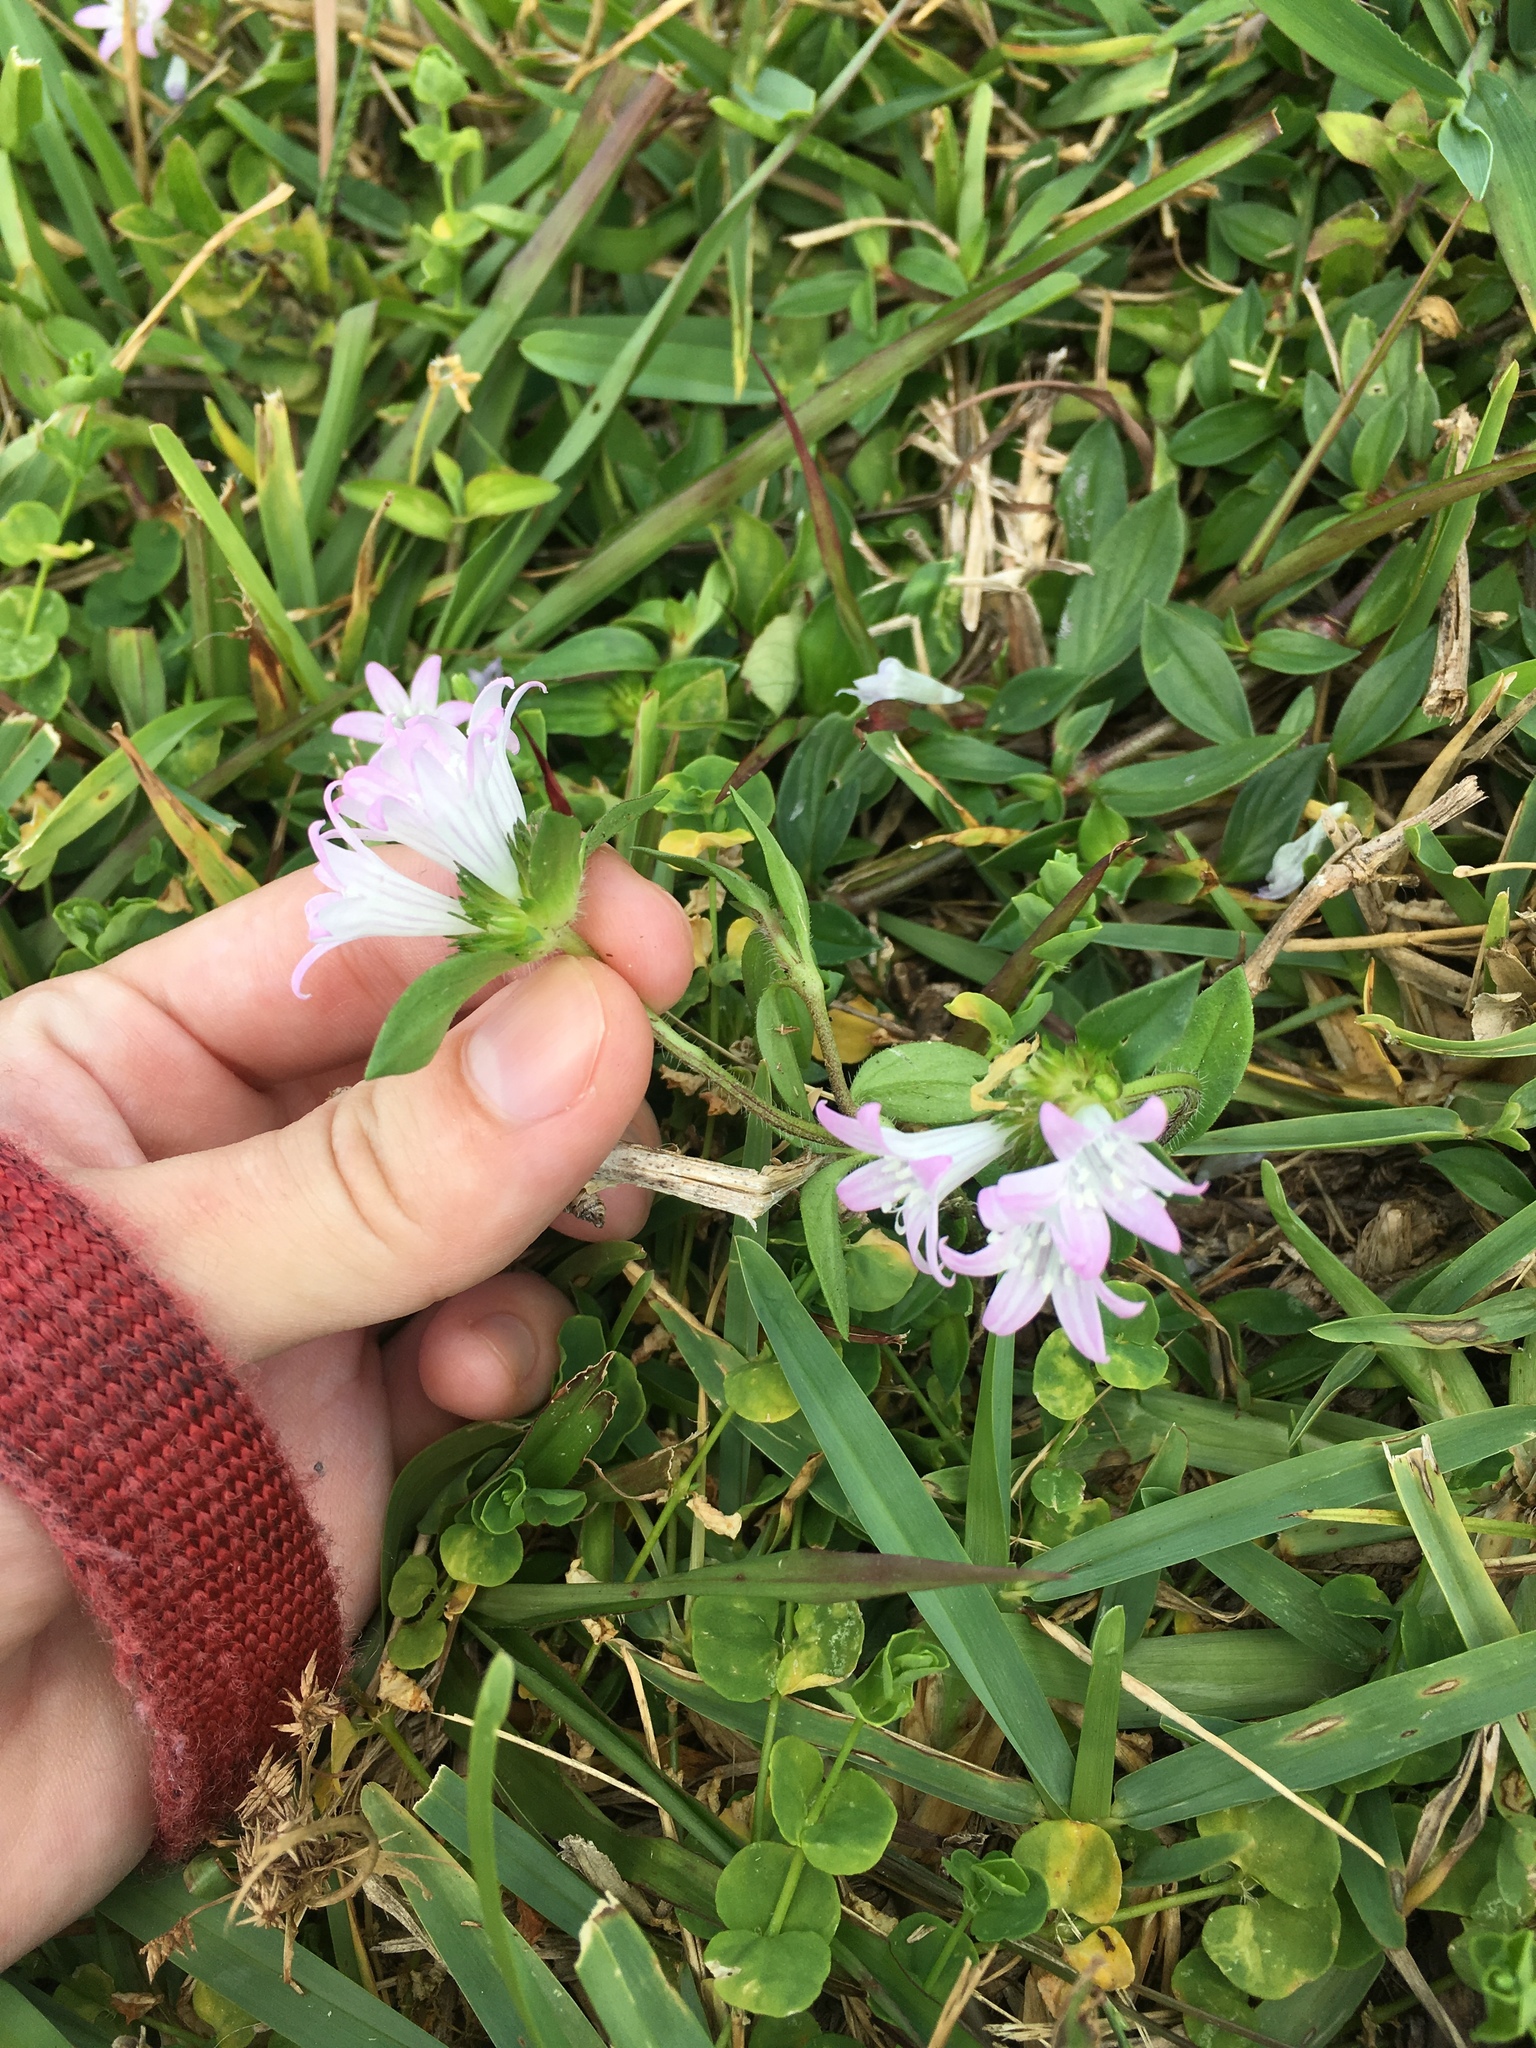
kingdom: Plantae
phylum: Tracheophyta
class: Magnoliopsida
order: Gentianales
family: Rubiaceae
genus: Richardia
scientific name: Richardia grandiflora
